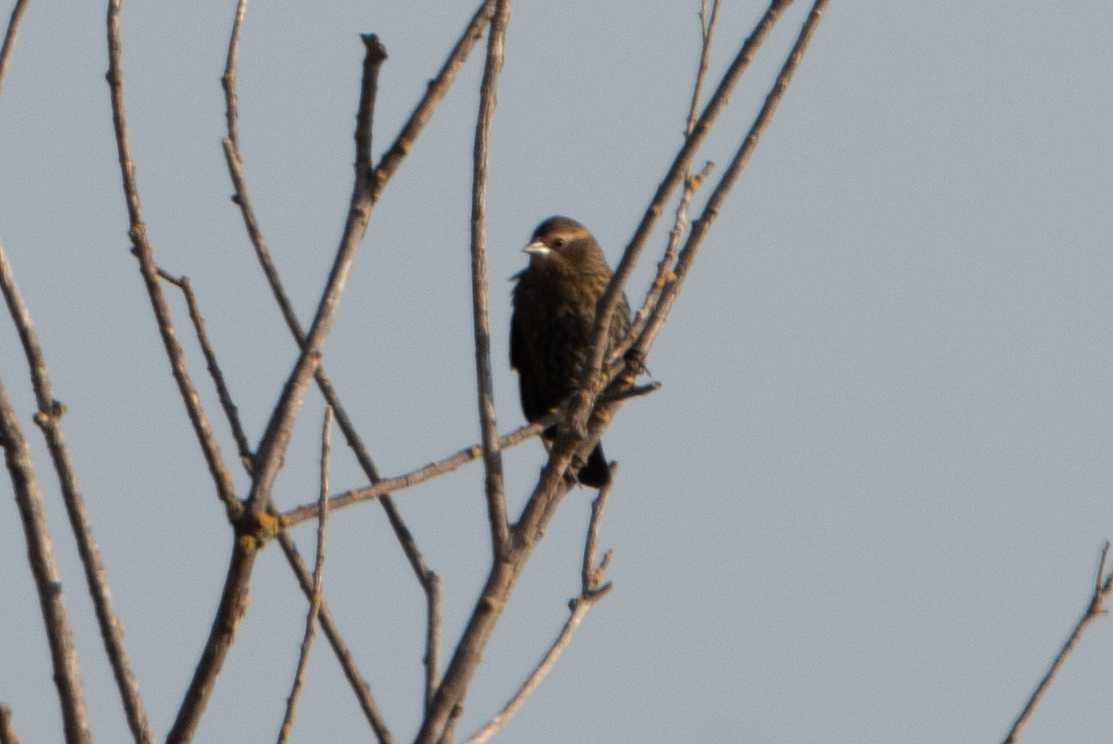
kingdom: Animalia
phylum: Chordata
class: Aves
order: Passeriformes
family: Icteridae
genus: Agelaius
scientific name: Agelaius phoeniceus
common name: Red-winged blackbird
